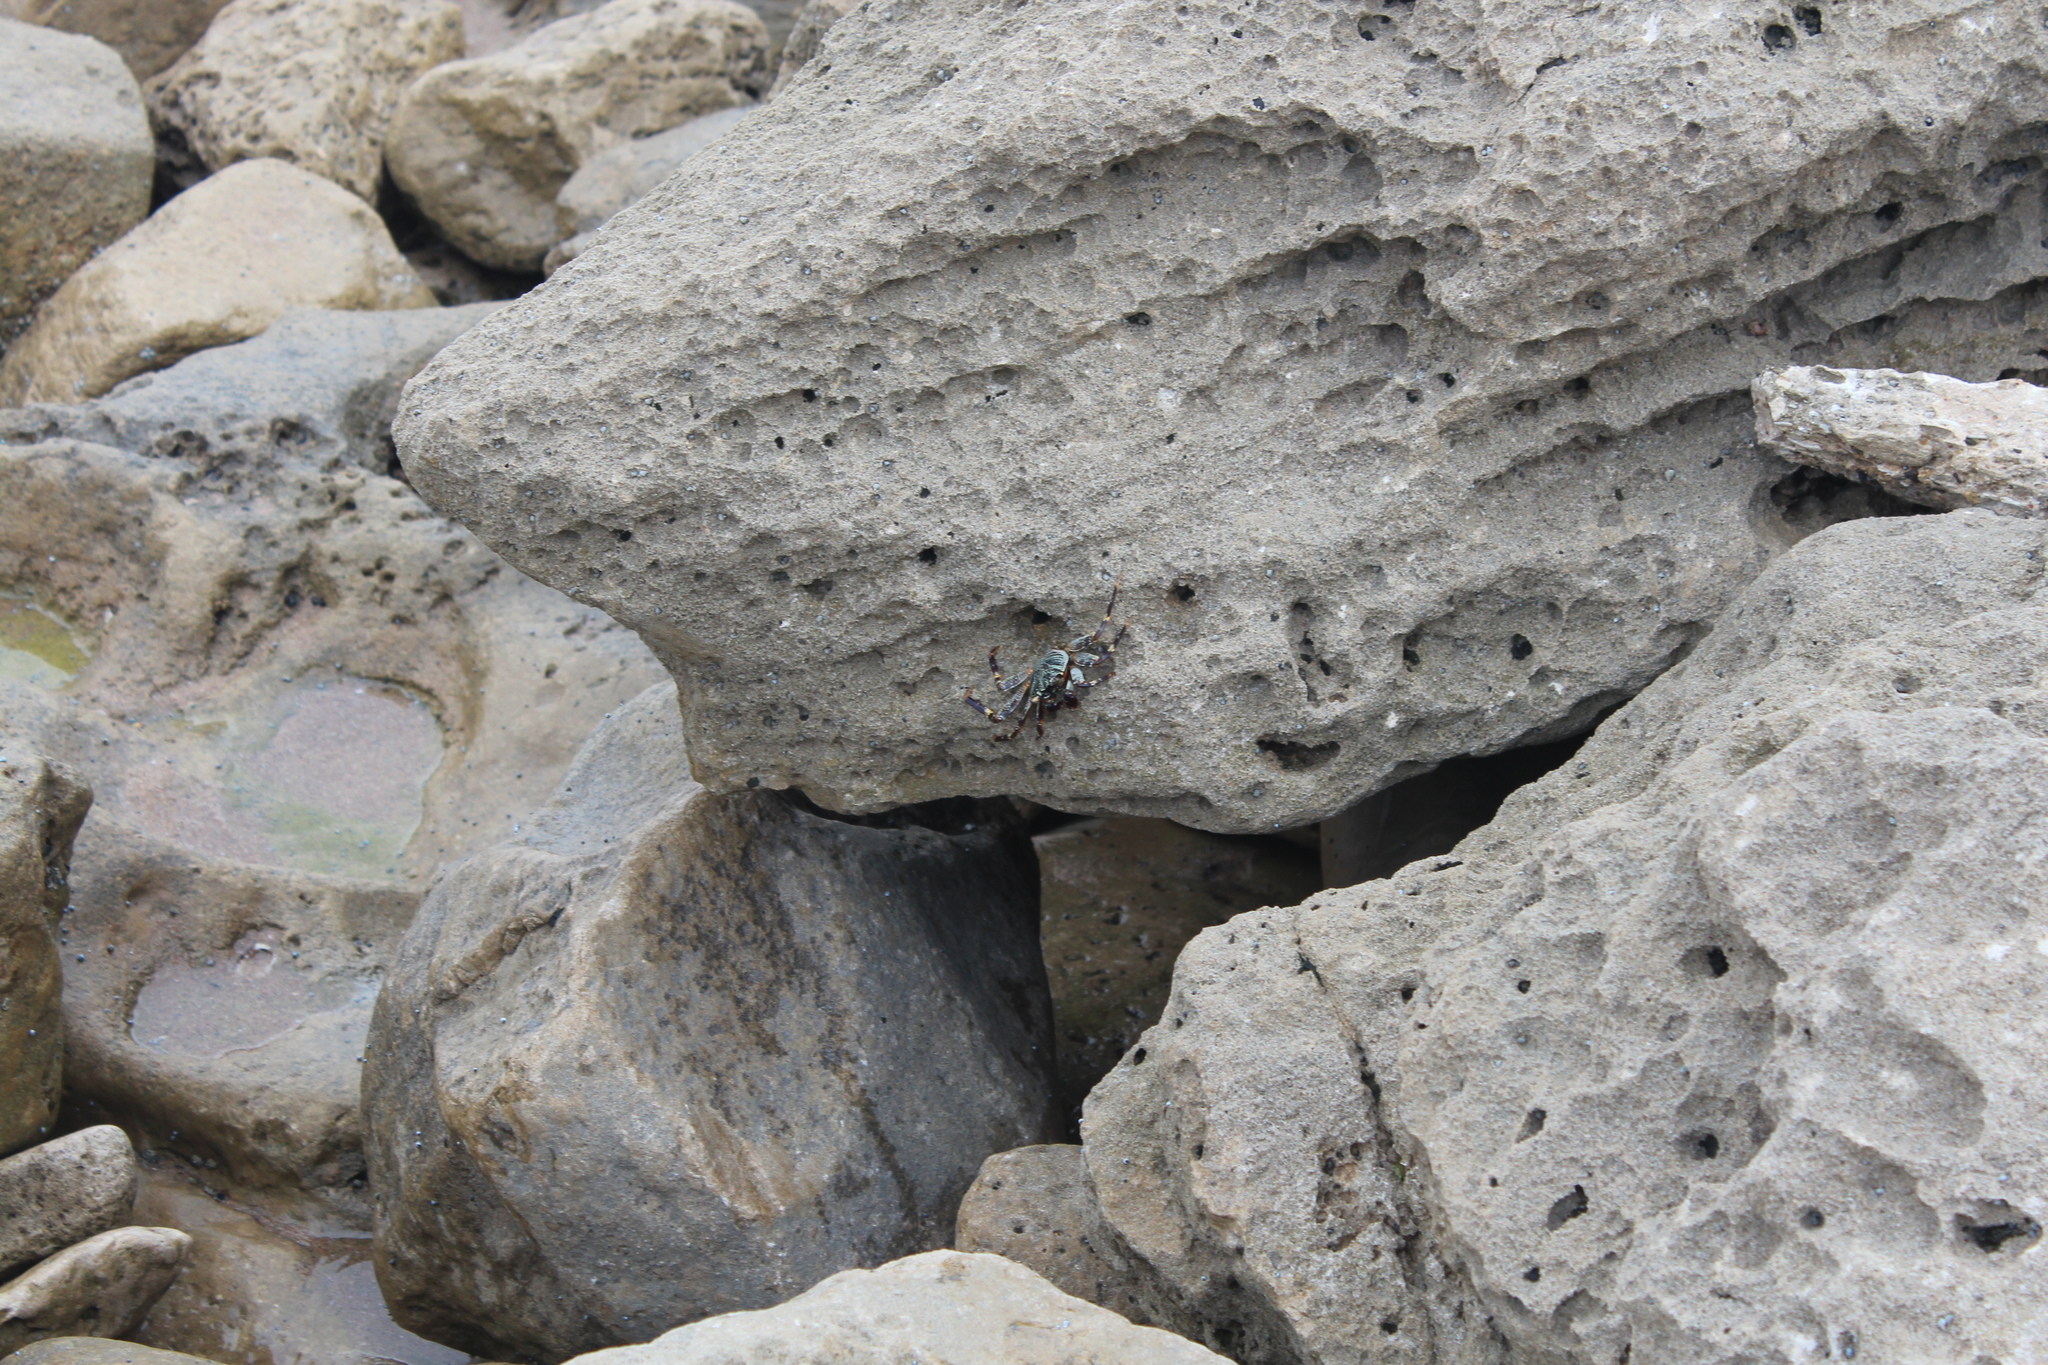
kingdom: Animalia
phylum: Arthropoda
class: Malacostraca
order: Decapoda
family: Grapsidae
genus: Grapsus
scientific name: Grapsus tenuicrustatus
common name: Natal lightfoot crab
